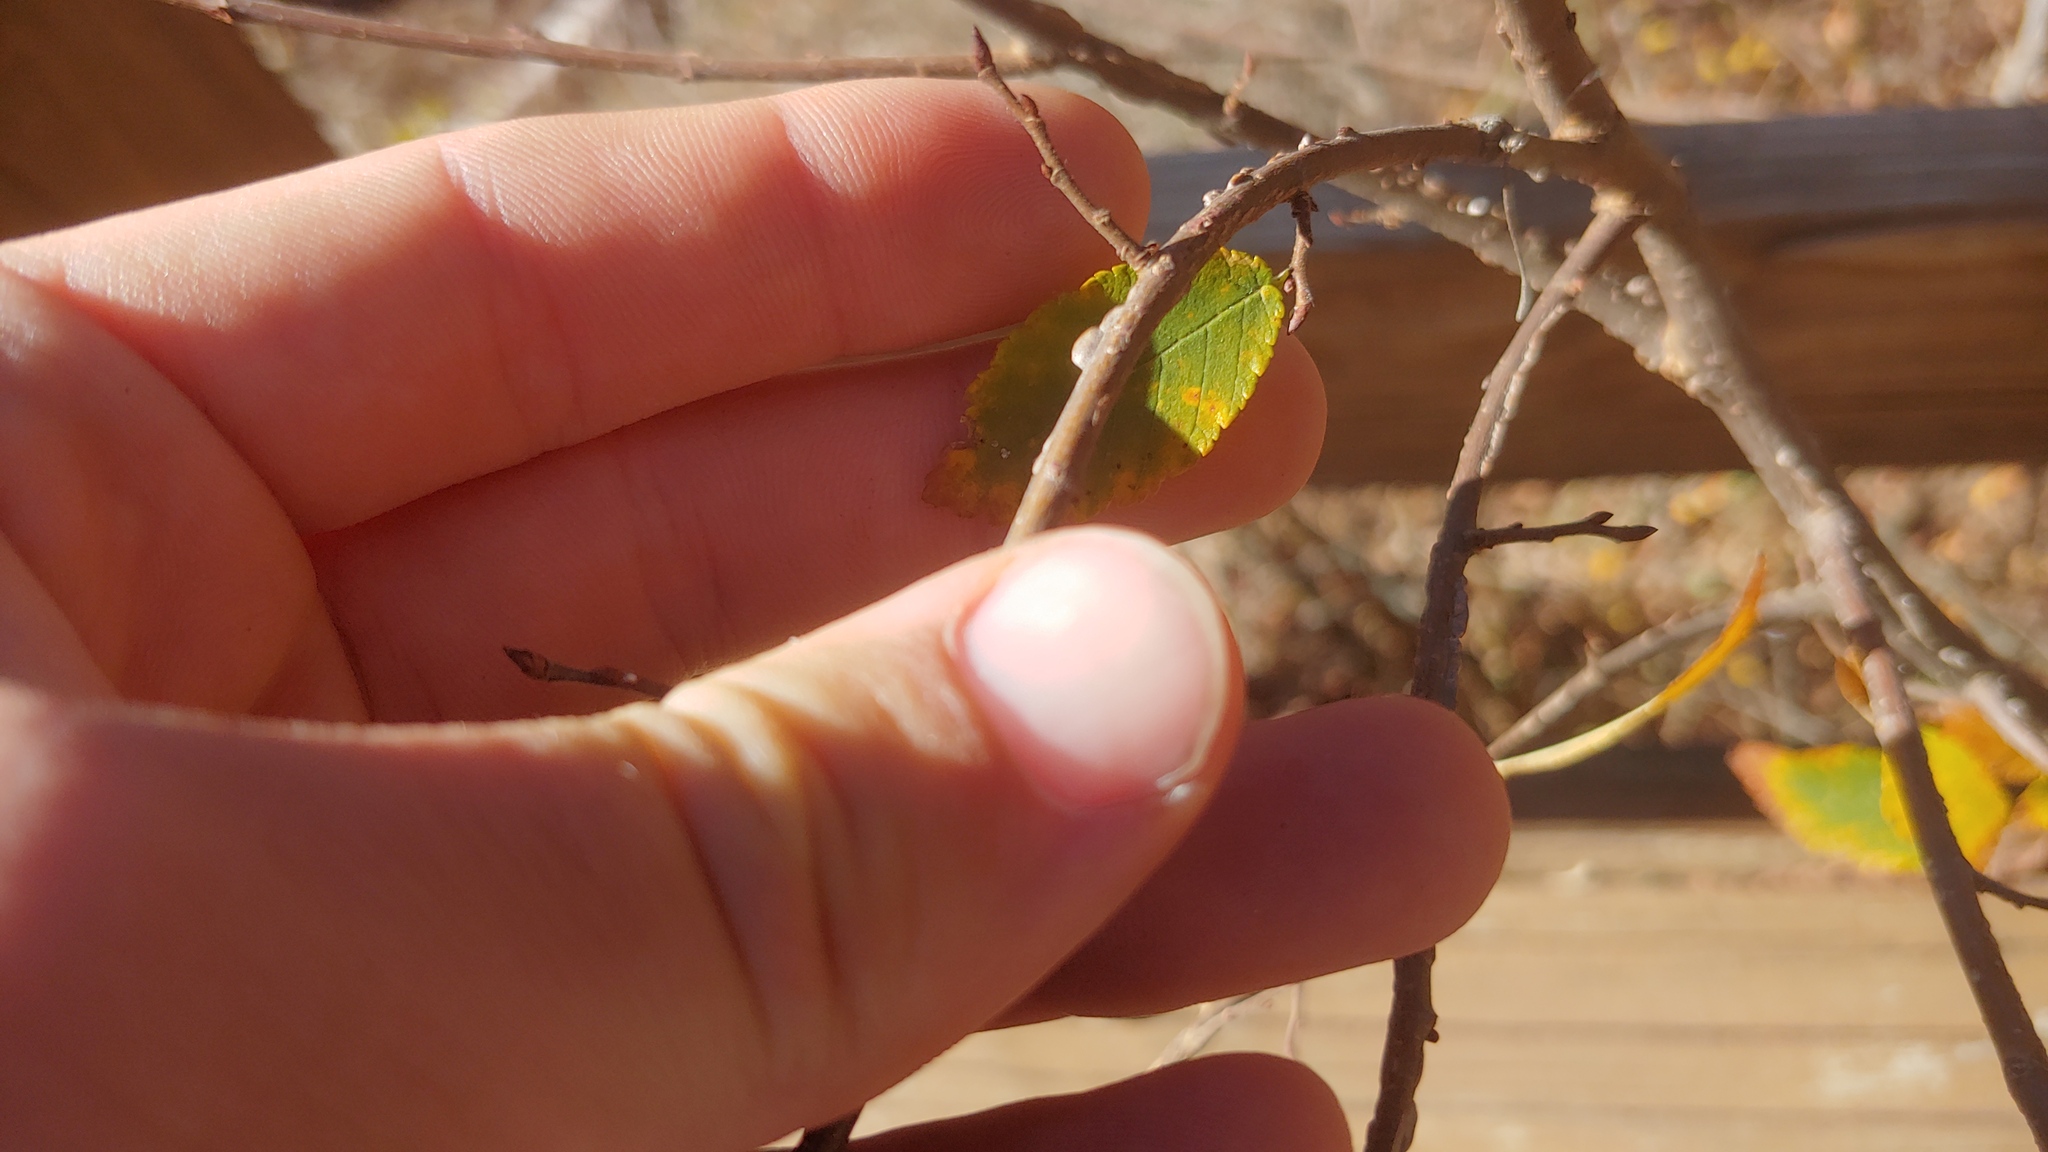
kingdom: Plantae
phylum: Tracheophyta
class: Magnoliopsida
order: Rosales
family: Ulmaceae
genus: Ulmus
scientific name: Ulmus alata
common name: Winged elm
